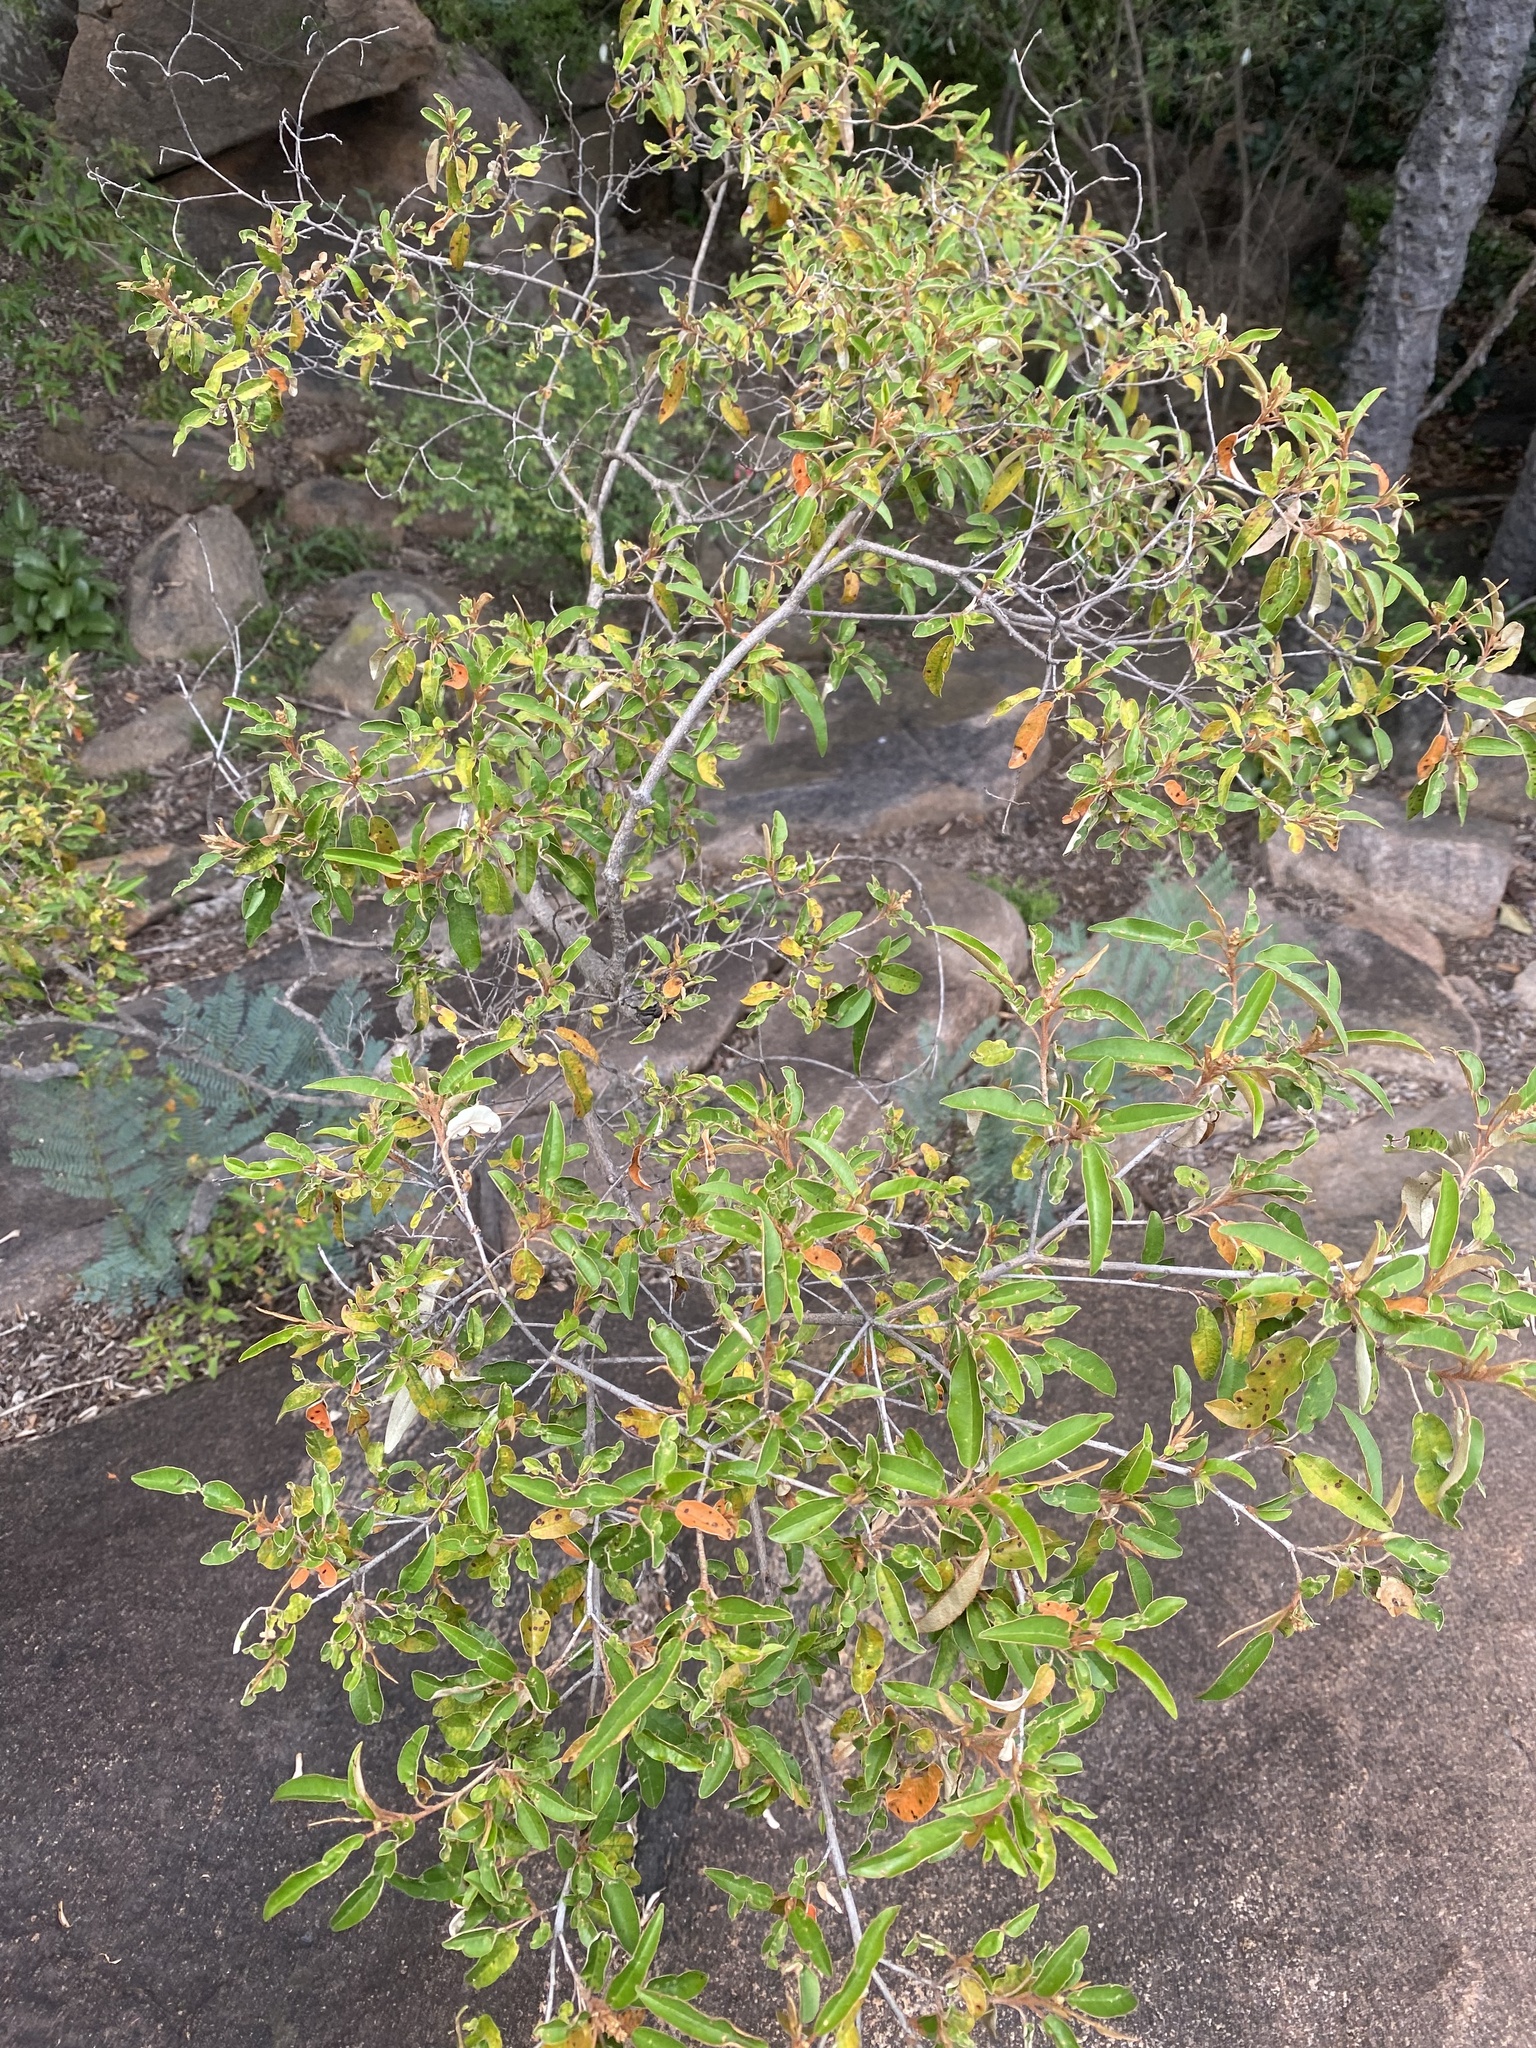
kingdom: Plantae
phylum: Tracheophyta
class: Magnoliopsida
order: Malpighiales
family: Euphorbiaceae
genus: Croton
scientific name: Croton gratissimus
